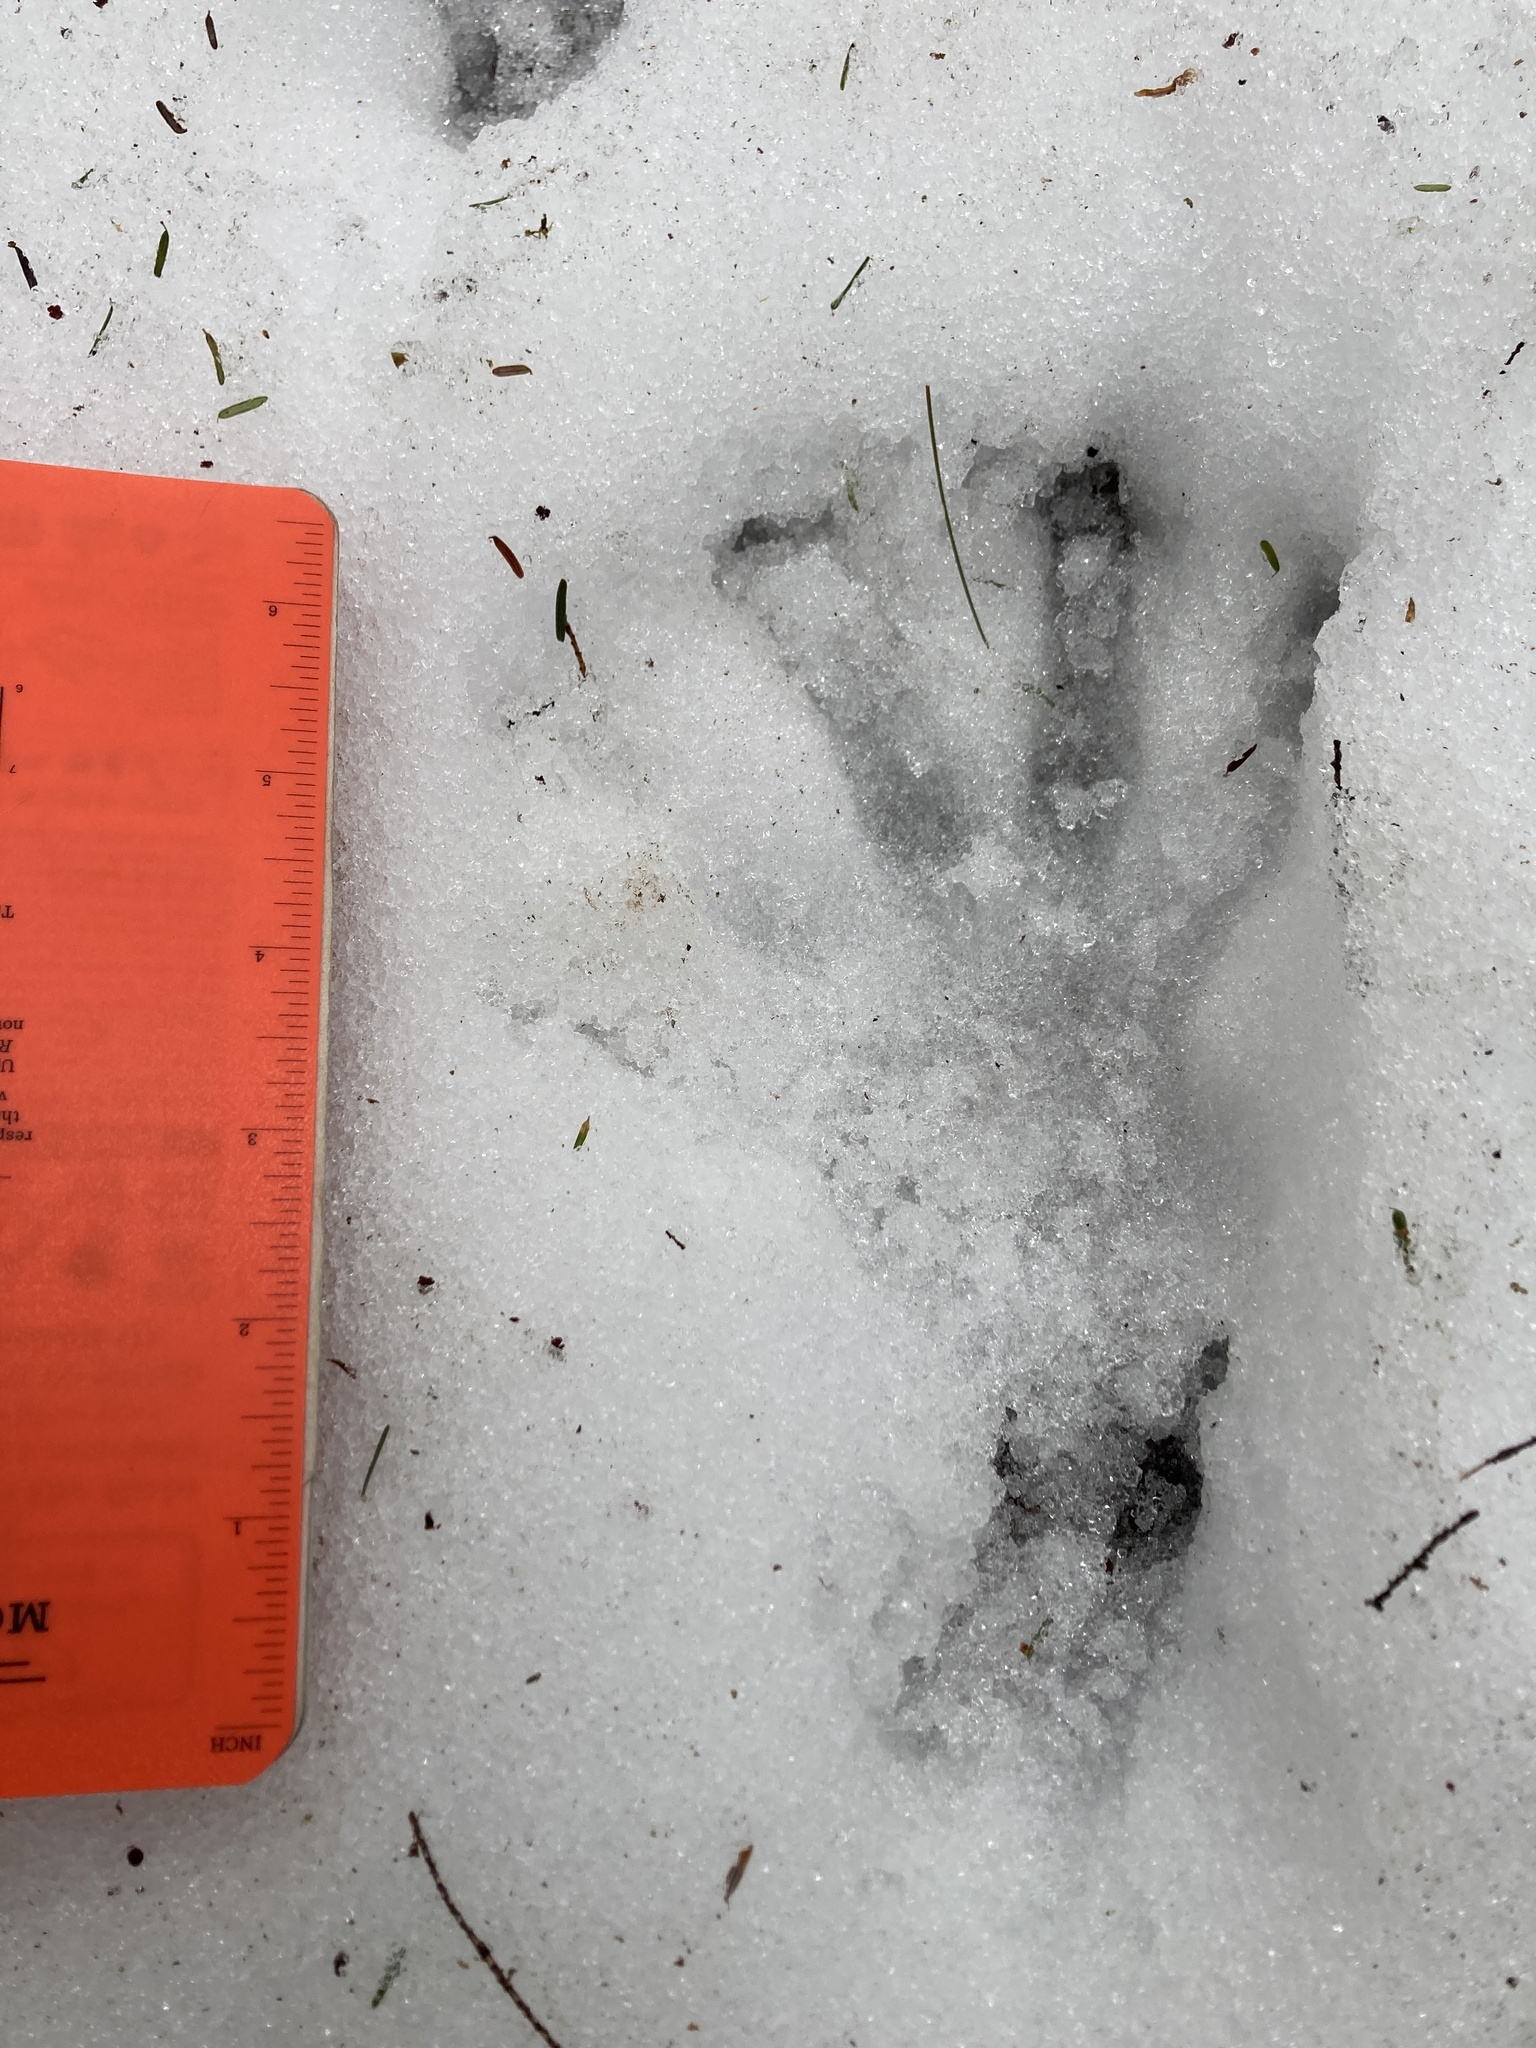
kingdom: Animalia
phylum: Chordata
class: Mammalia
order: Rodentia
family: Castoridae
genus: Castor
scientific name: Castor canadensis
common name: American beaver
